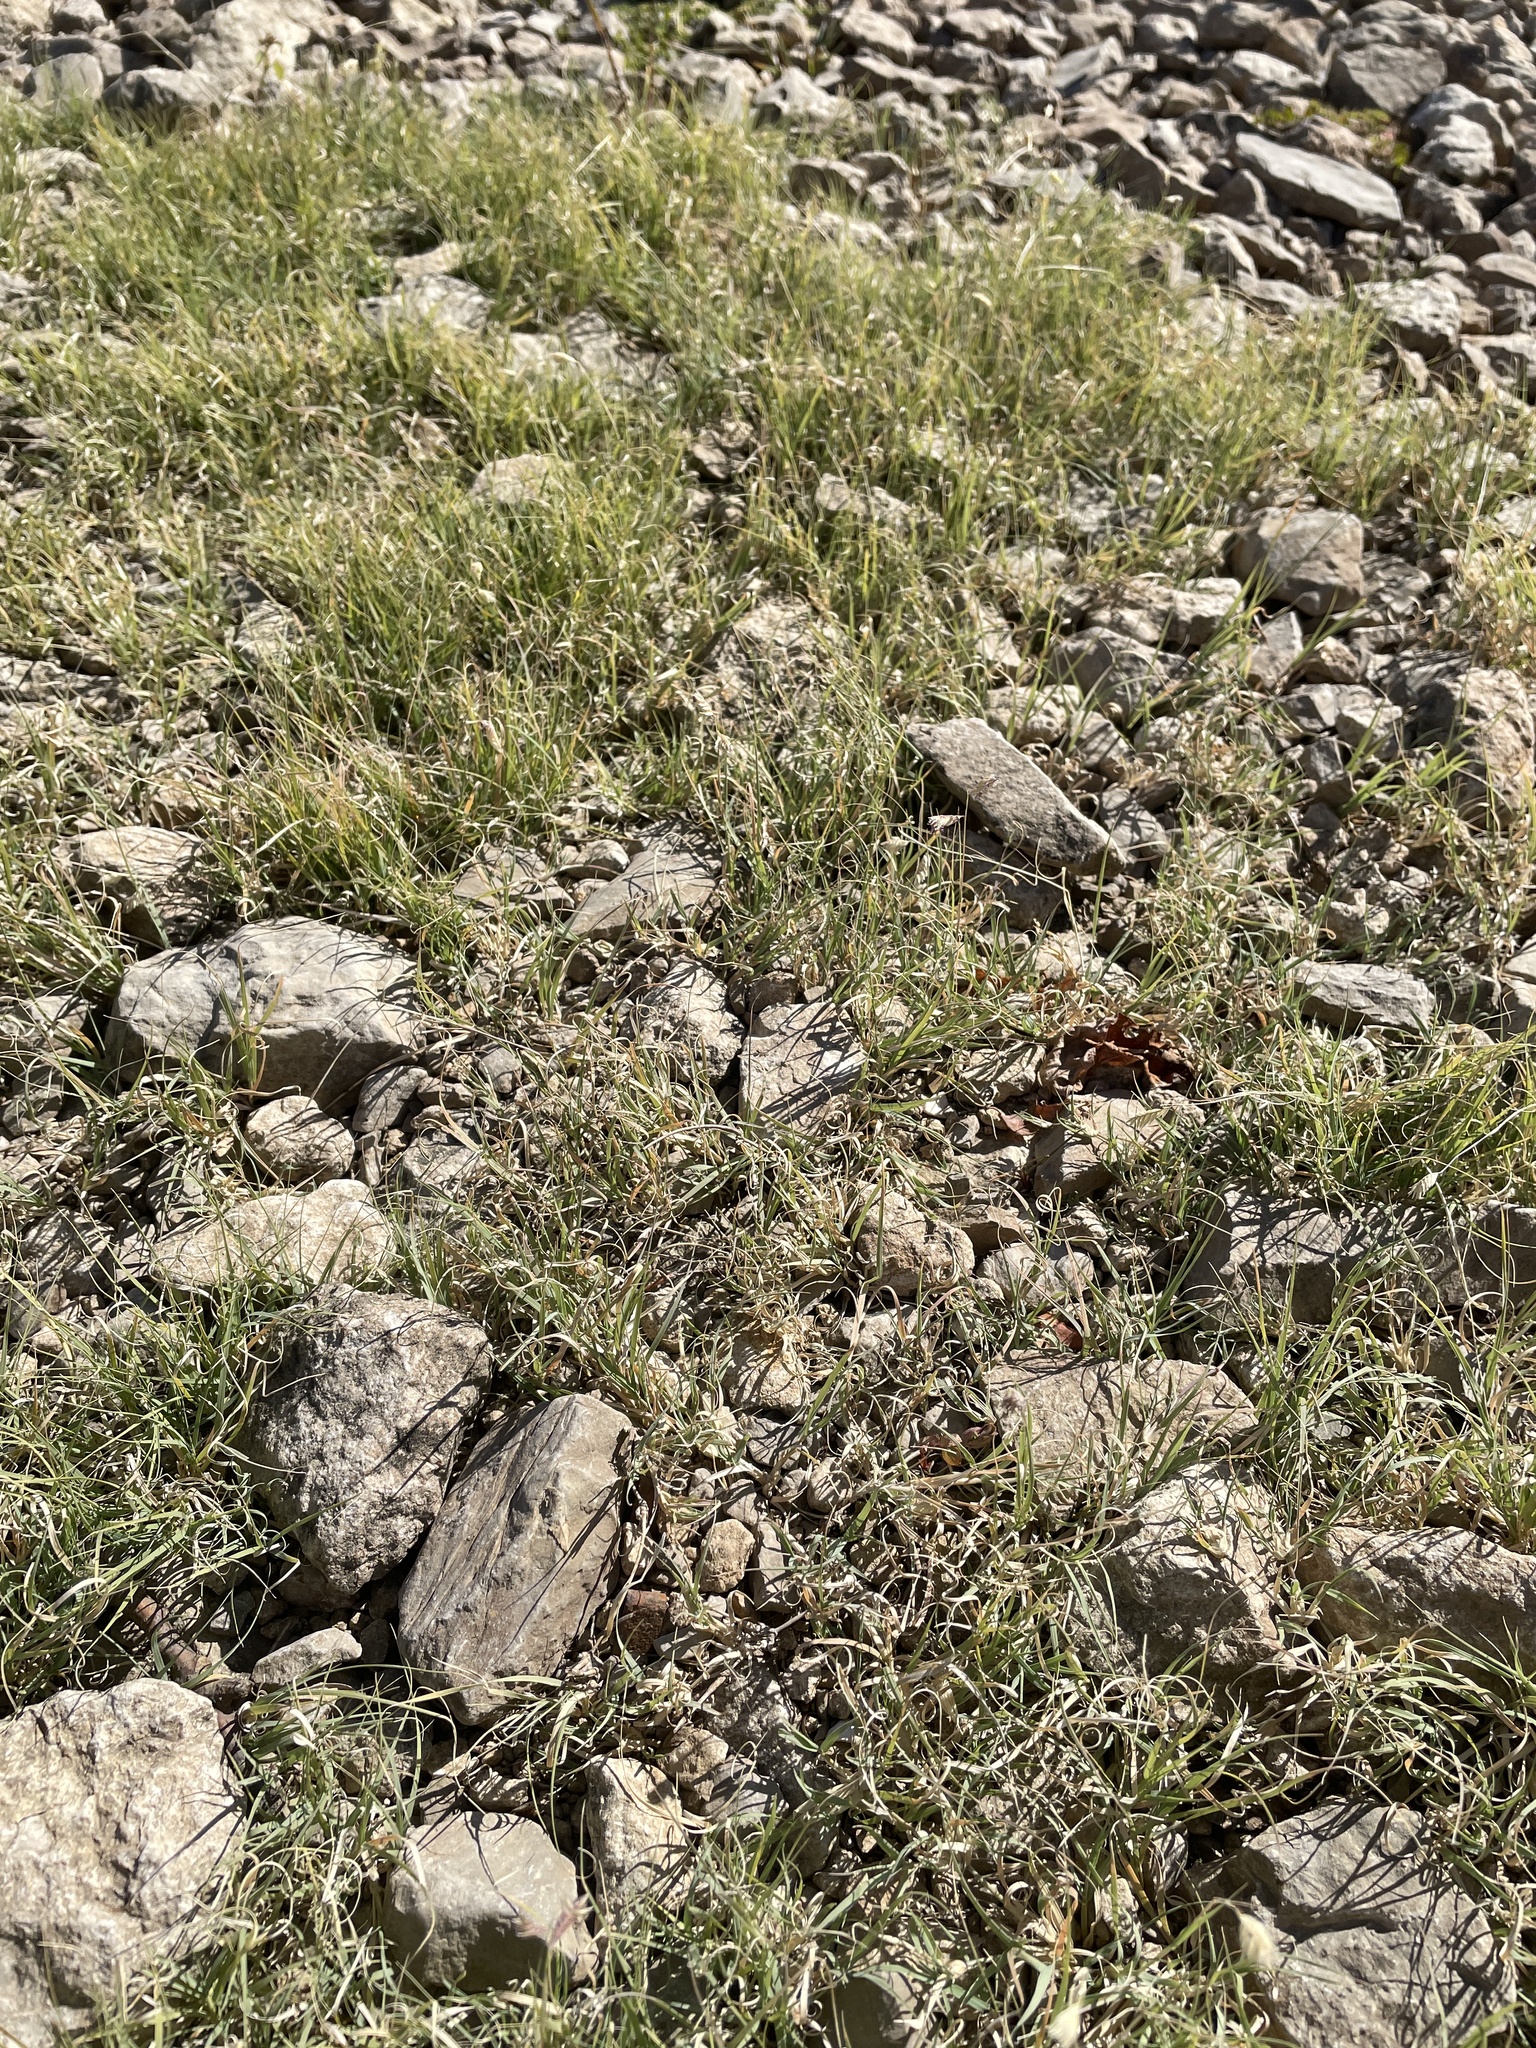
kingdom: Plantae
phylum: Tracheophyta
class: Liliopsida
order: Poales
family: Poaceae
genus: Bouteloua
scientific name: Bouteloua dactyloides
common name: Buffalo grass
